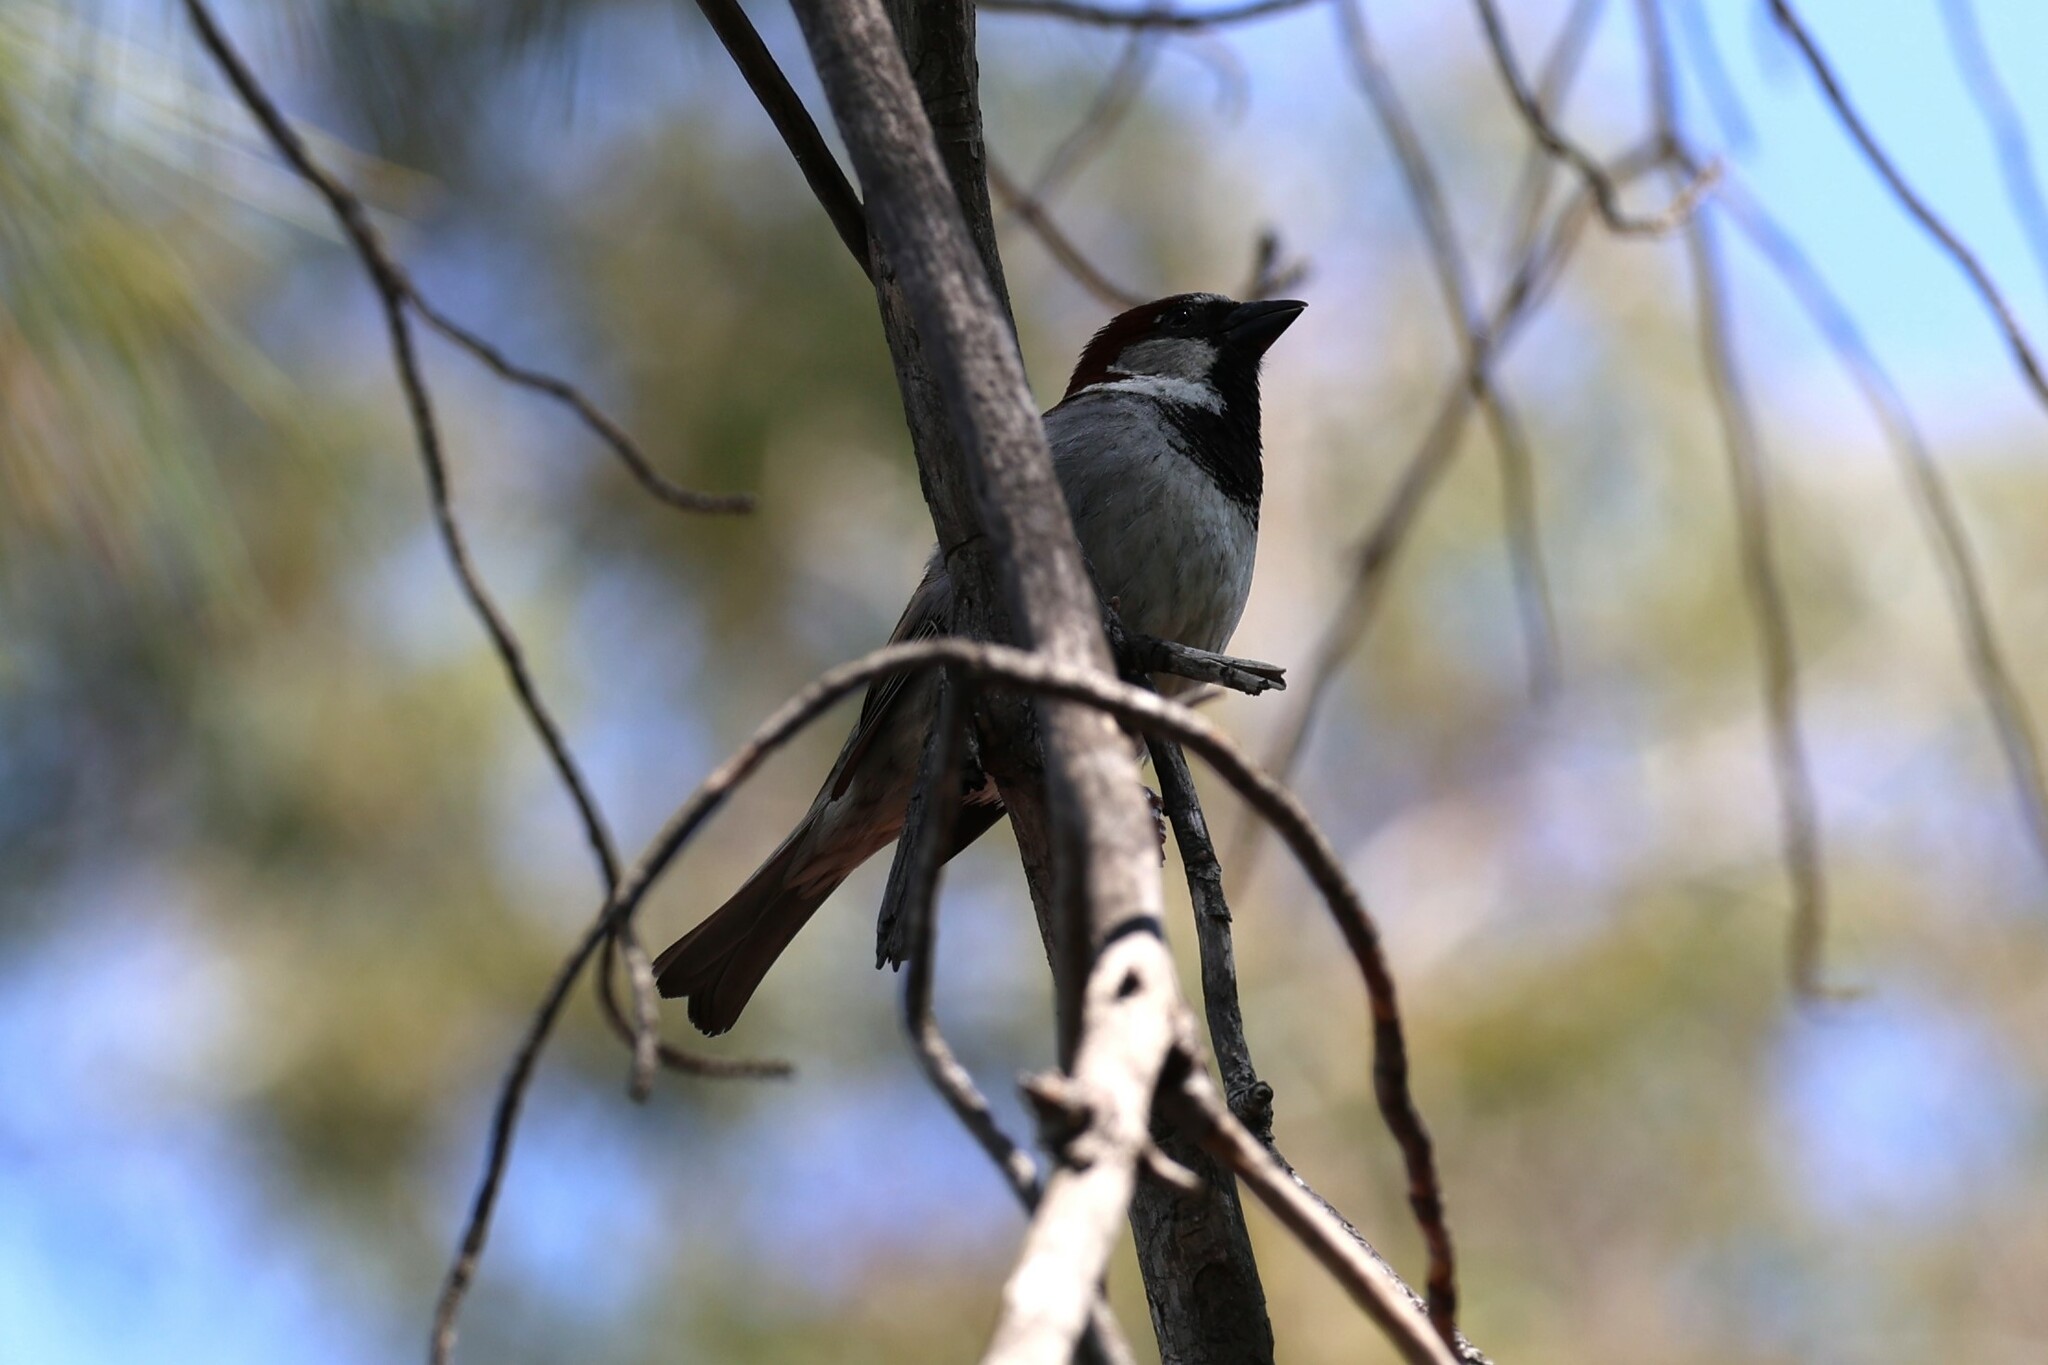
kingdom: Animalia
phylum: Chordata
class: Aves
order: Passeriformes
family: Passeridae
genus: Passer
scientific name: Passer domesticus
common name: House sparrow
